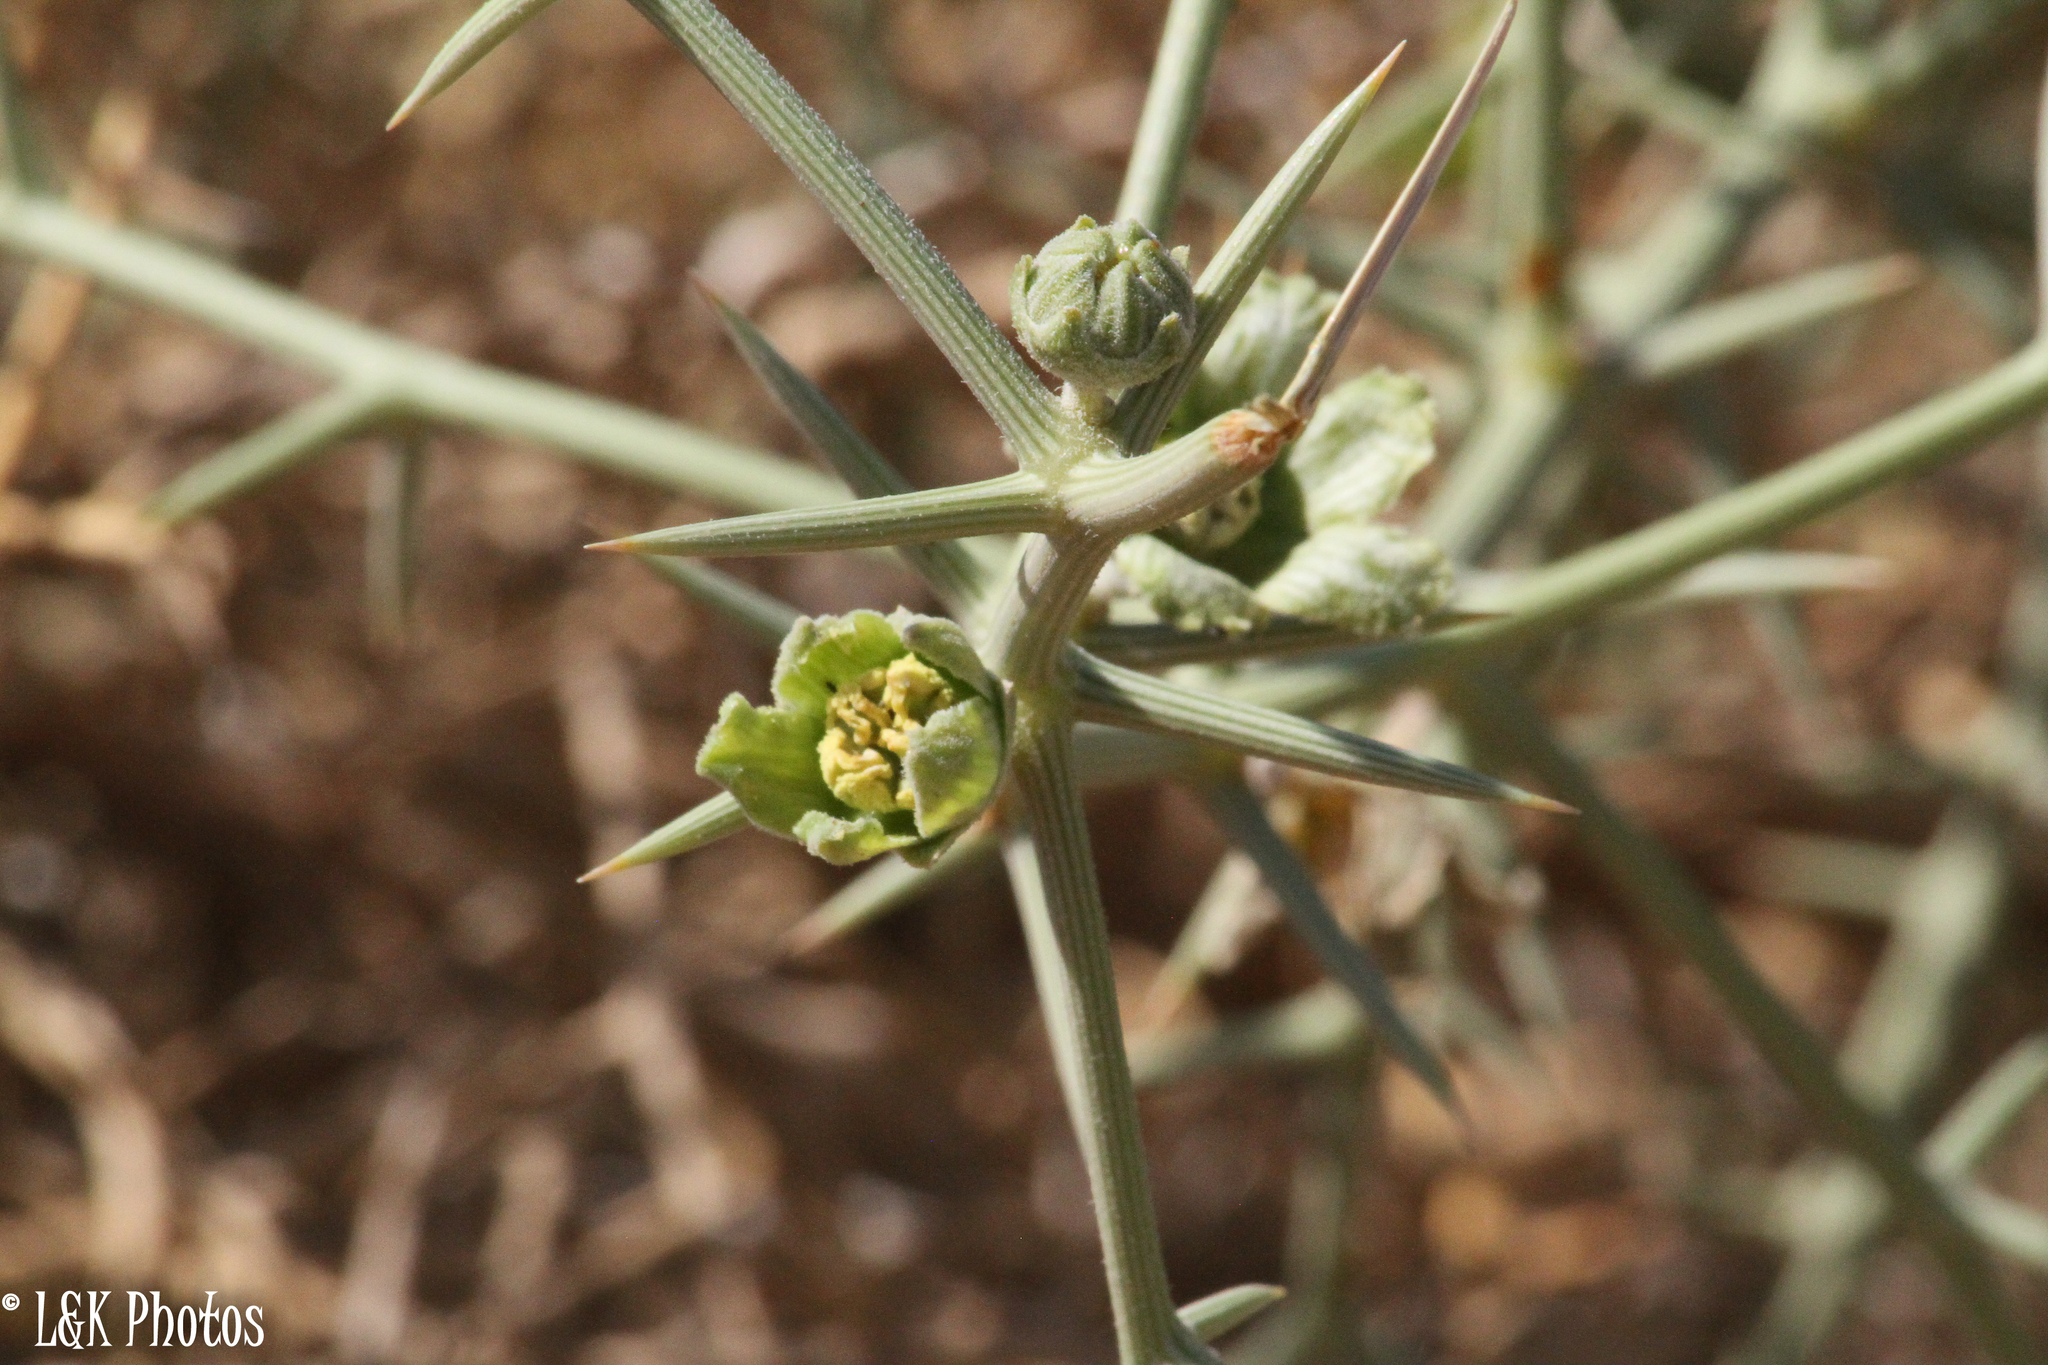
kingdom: Plantae
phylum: Tracheophyta
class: Magnoliopsida
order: Cucurbitales
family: Cucurbitaceae
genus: Acanthosicyos
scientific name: Acanthosicyos horridus
